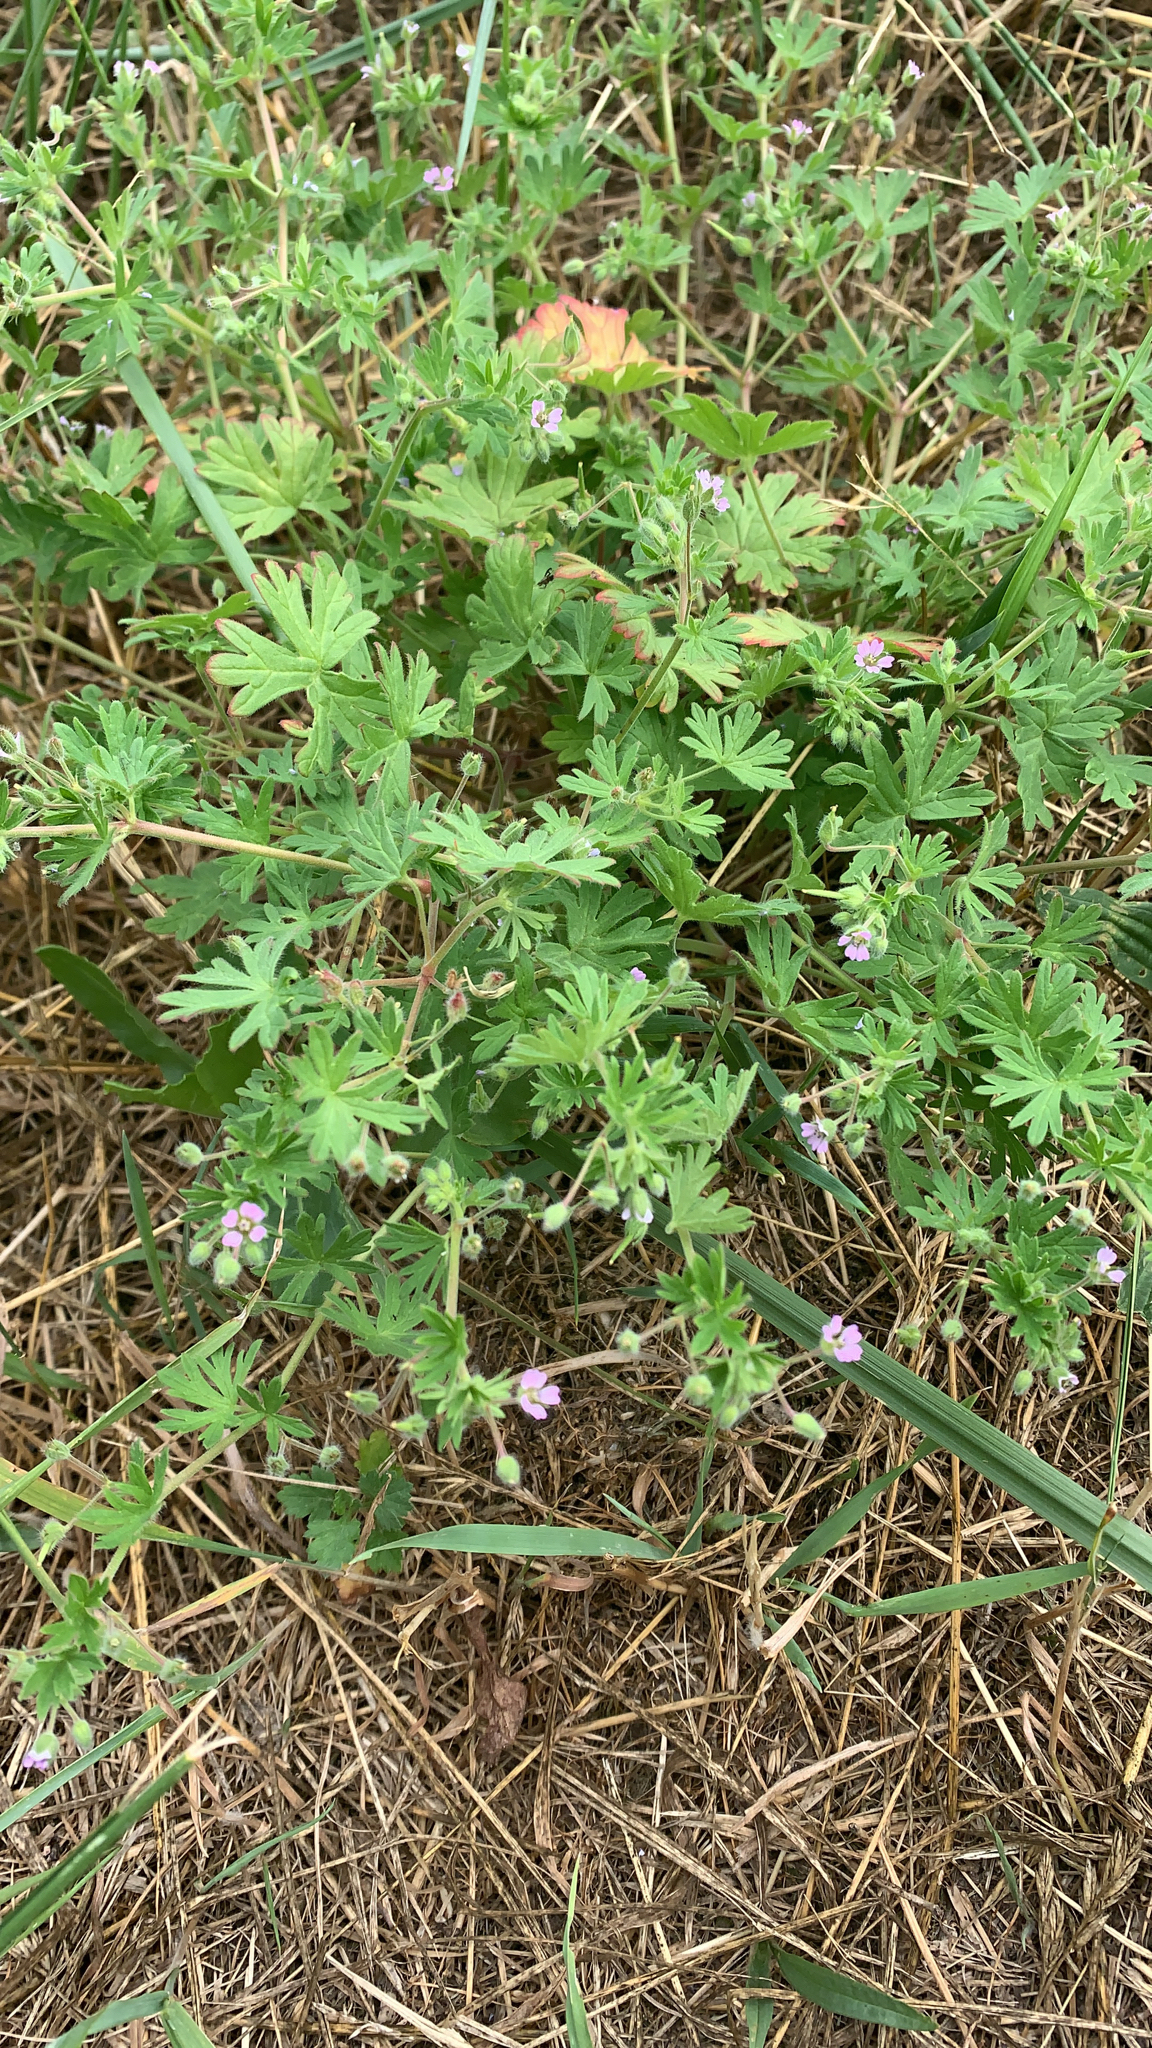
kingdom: Plantae
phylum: Tracheophyta
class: Magnoliopsida
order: Geraniales
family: Geraniaceae
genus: Geranium
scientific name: Geranium pusillum
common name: Small geranium
